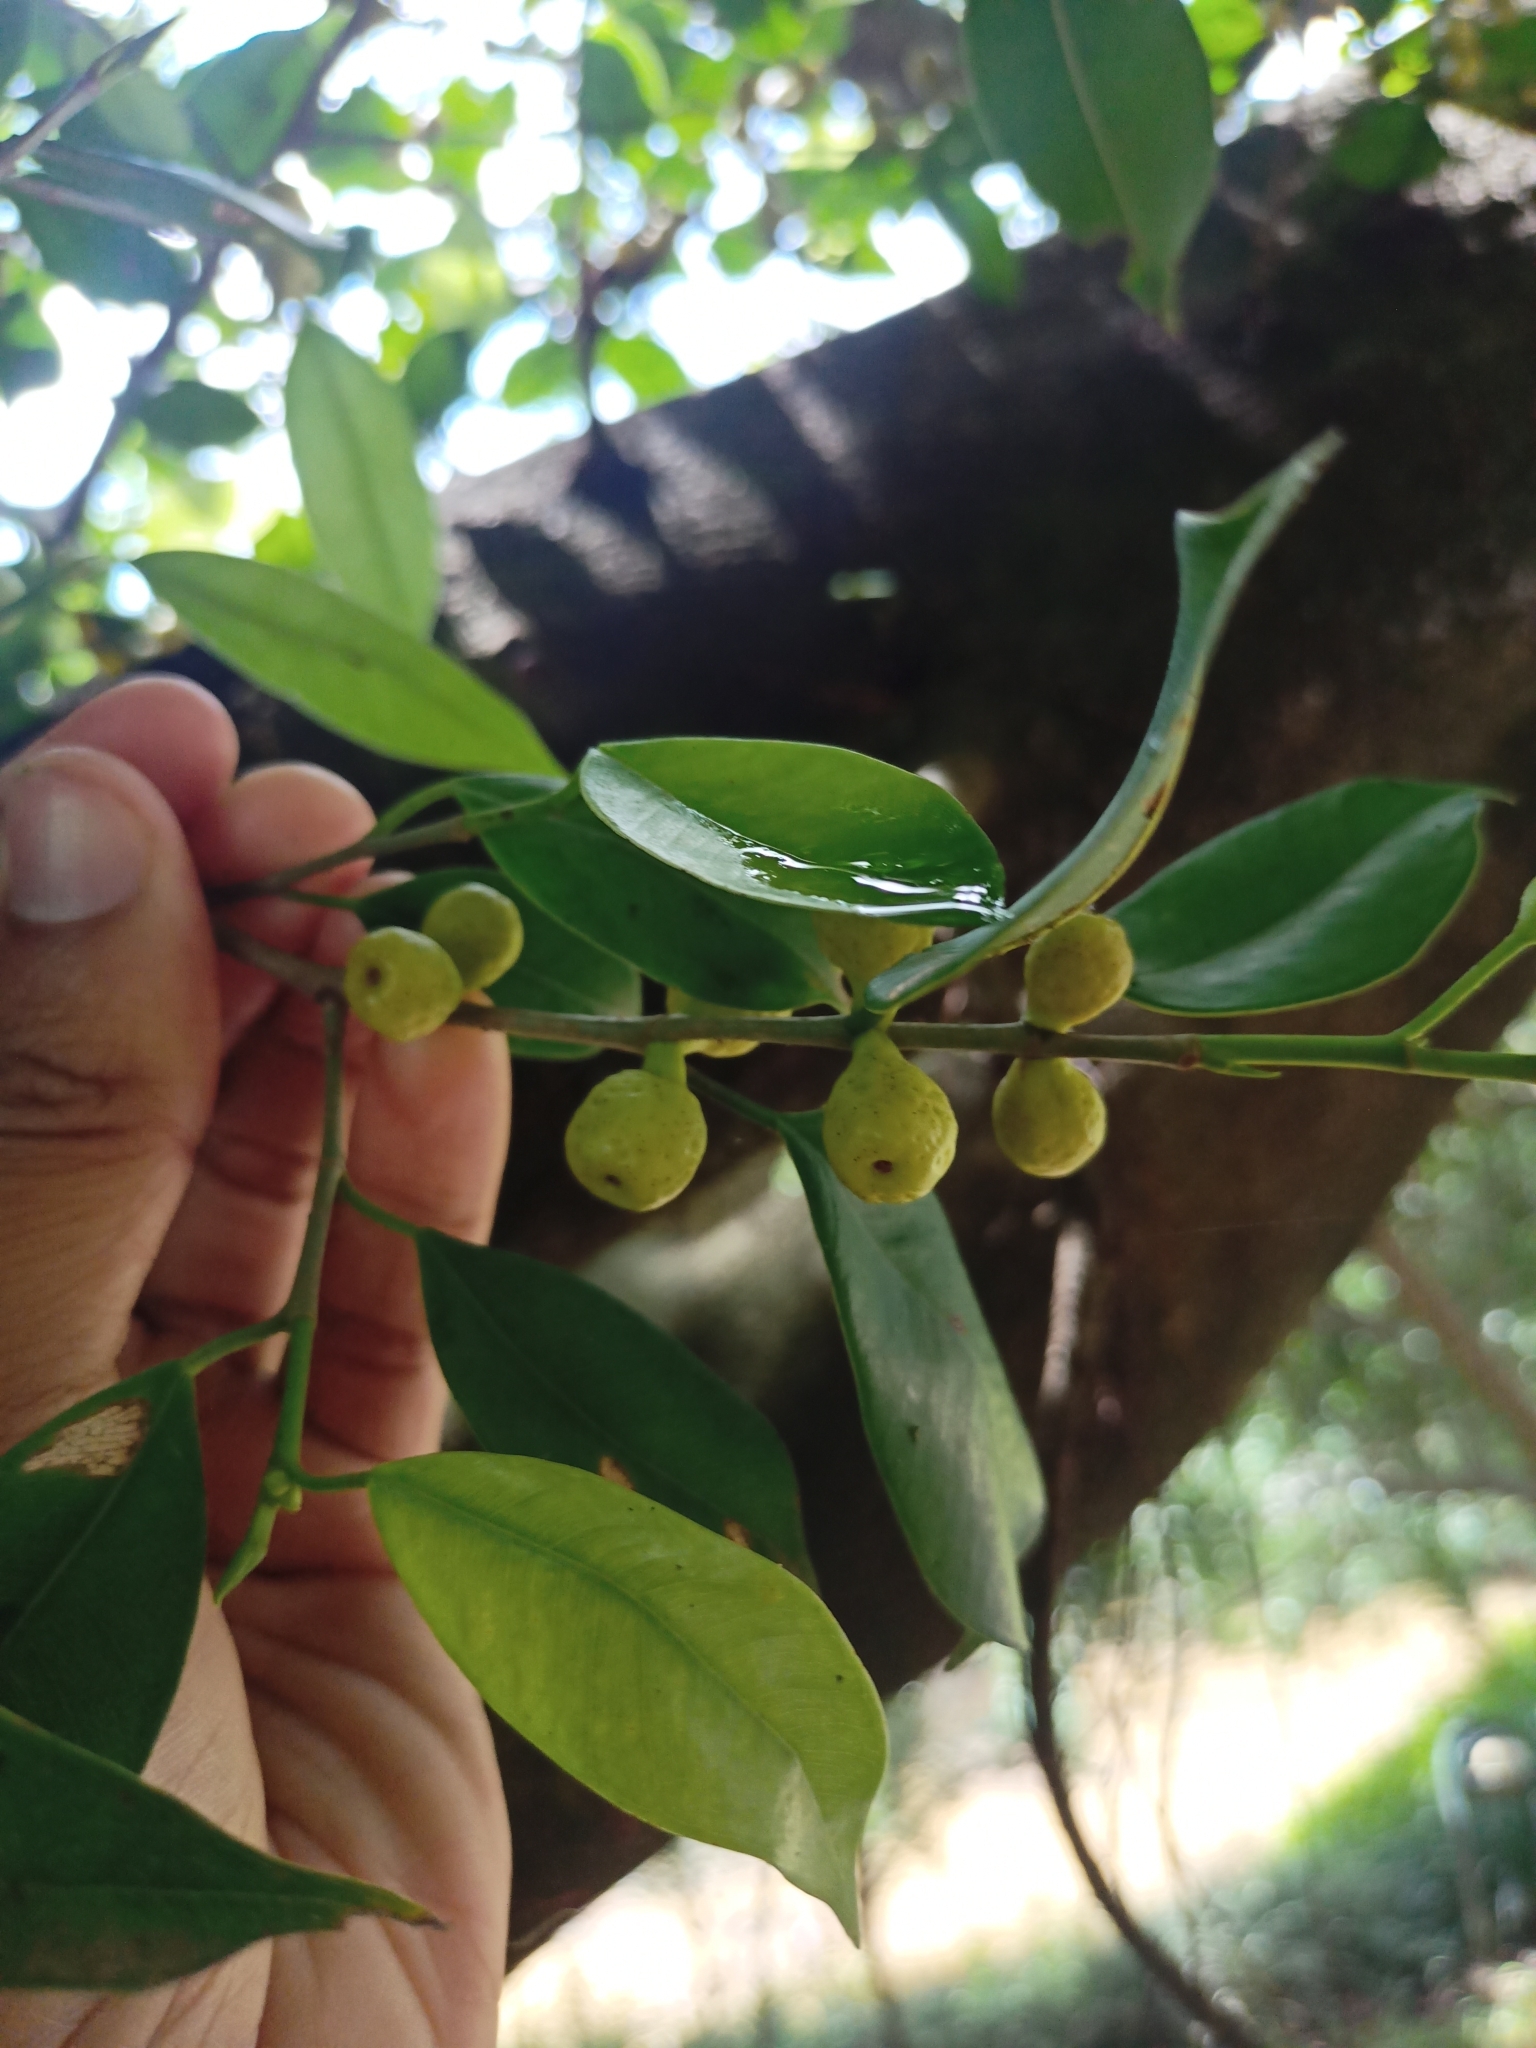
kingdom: Plantae
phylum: Tracheophyta
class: Magnoliopsida
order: Rosales
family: Moraceae
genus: Ficus
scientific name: Ficus microcarpa
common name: Chinese banyan
